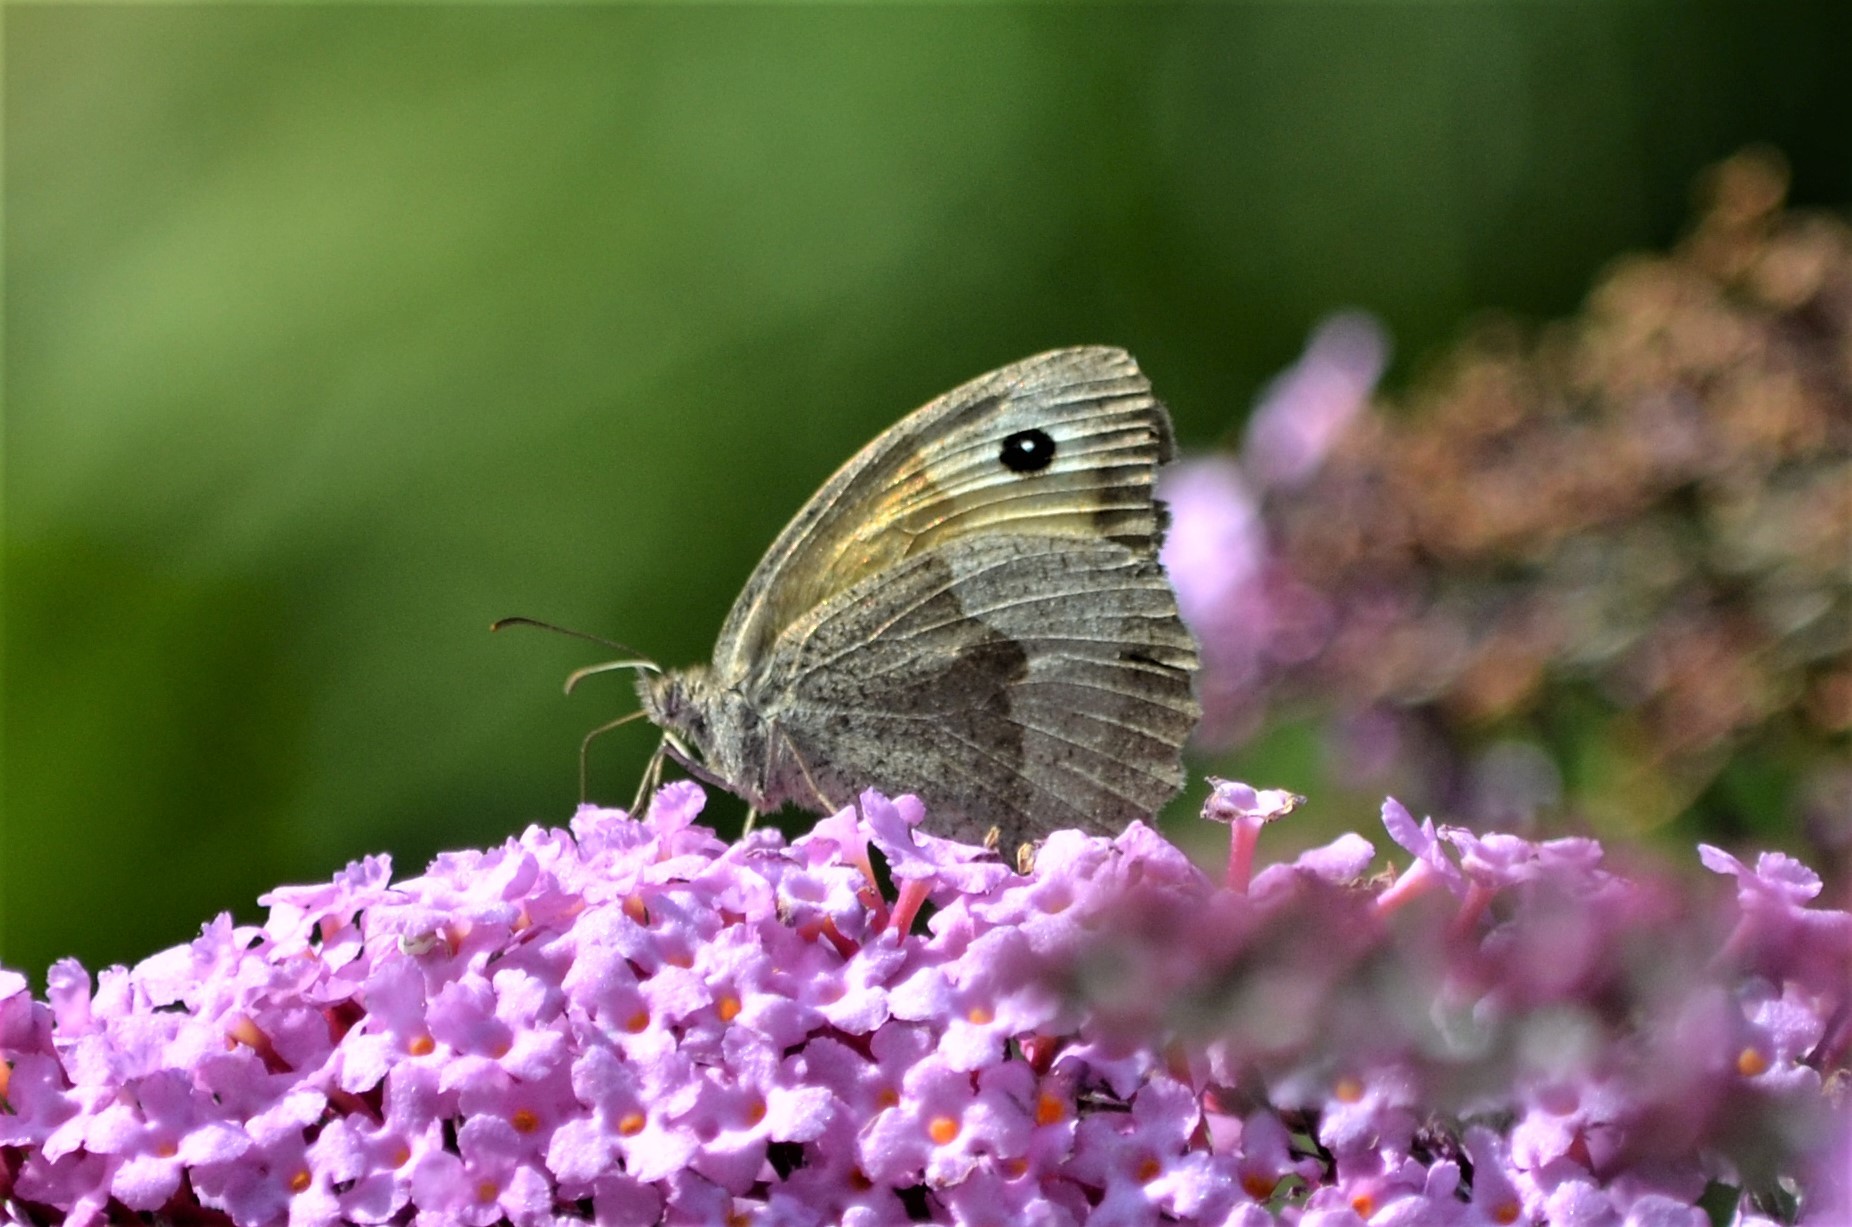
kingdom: Animalia
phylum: Arthropoda
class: Insecta
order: Lepidoptera
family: Nymphalidae
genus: Maniola
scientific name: Maniola jurtina
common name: Meadow brown
